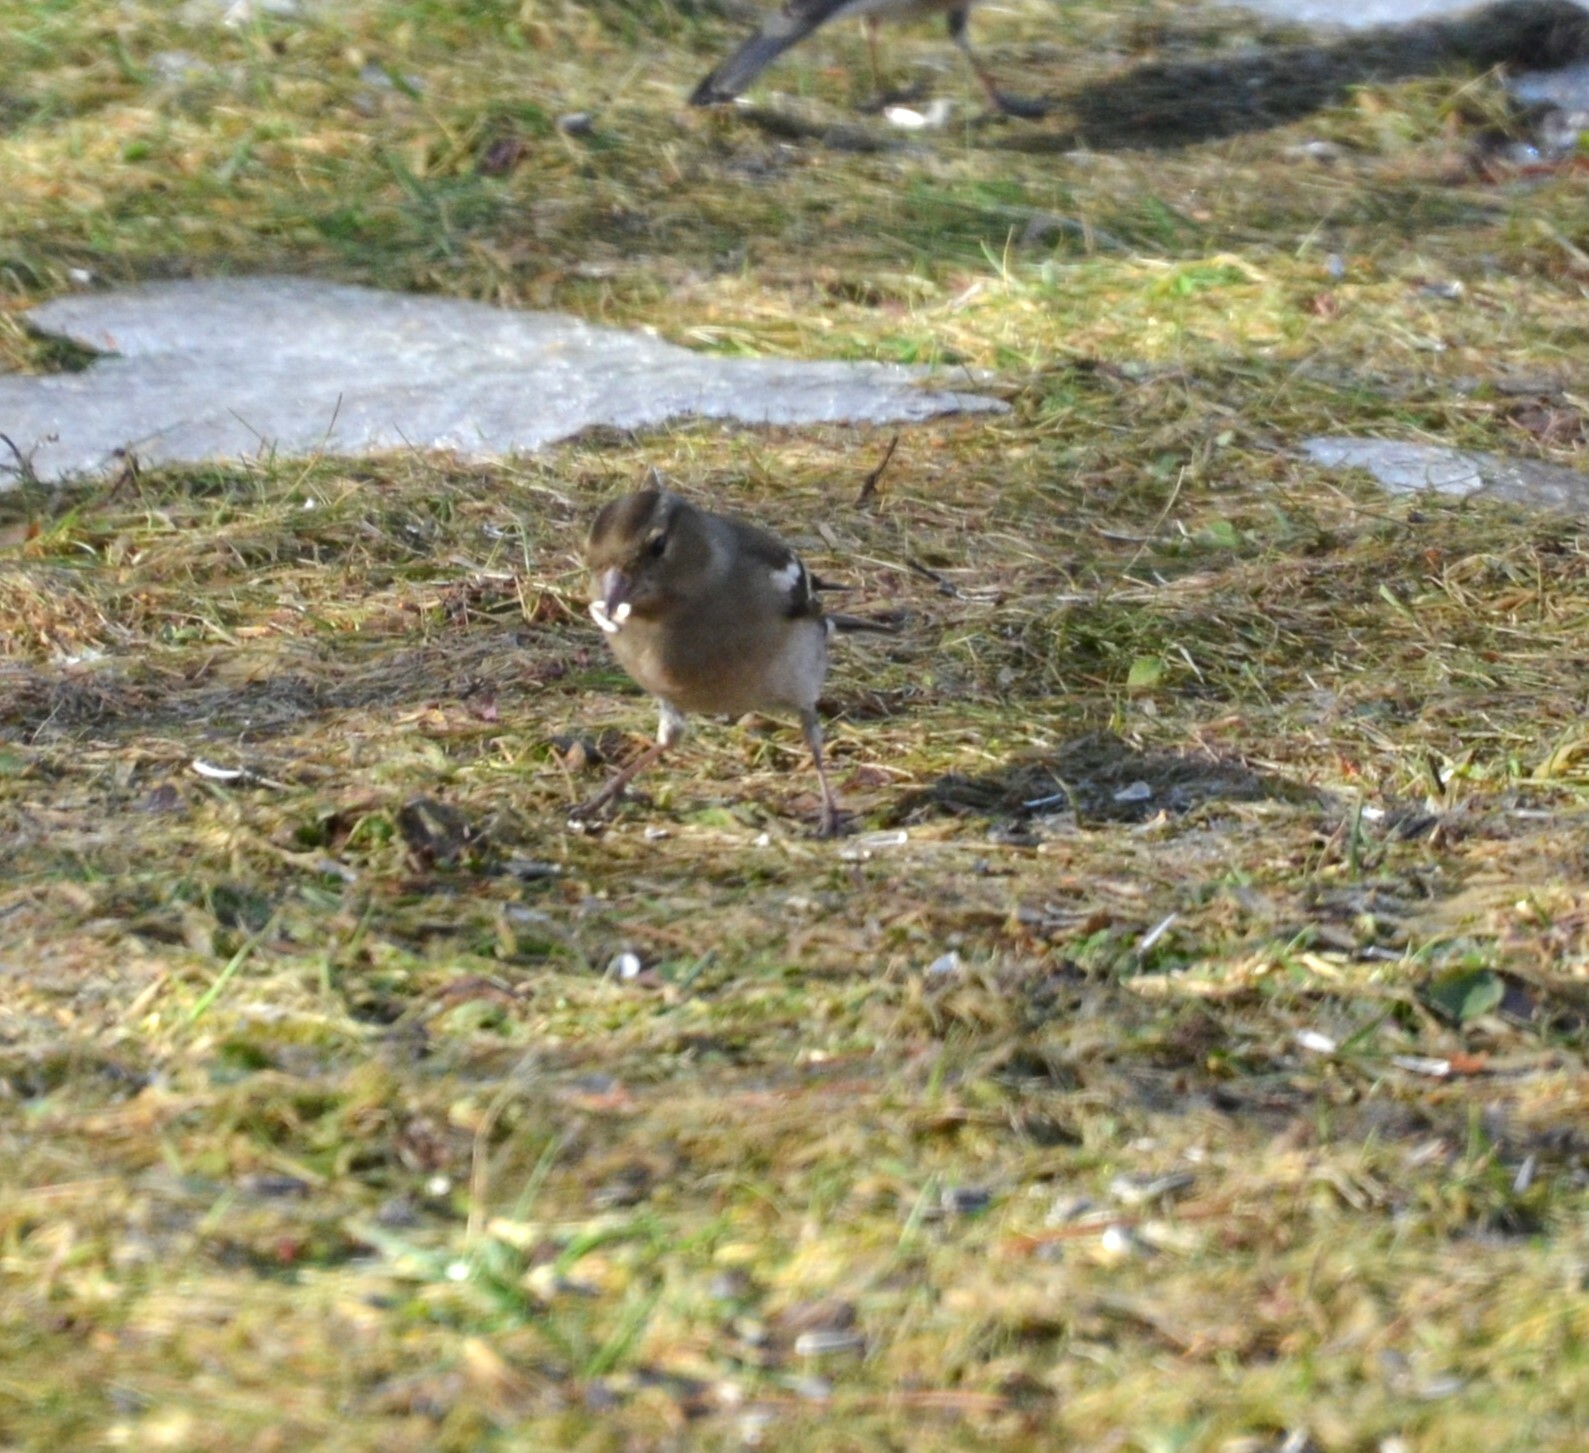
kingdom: Animalia
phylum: Chordata
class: Aves
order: Passeriformes
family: Fringillidae
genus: Fringilla
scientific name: Fringilla coelebs
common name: Common chaffinch
